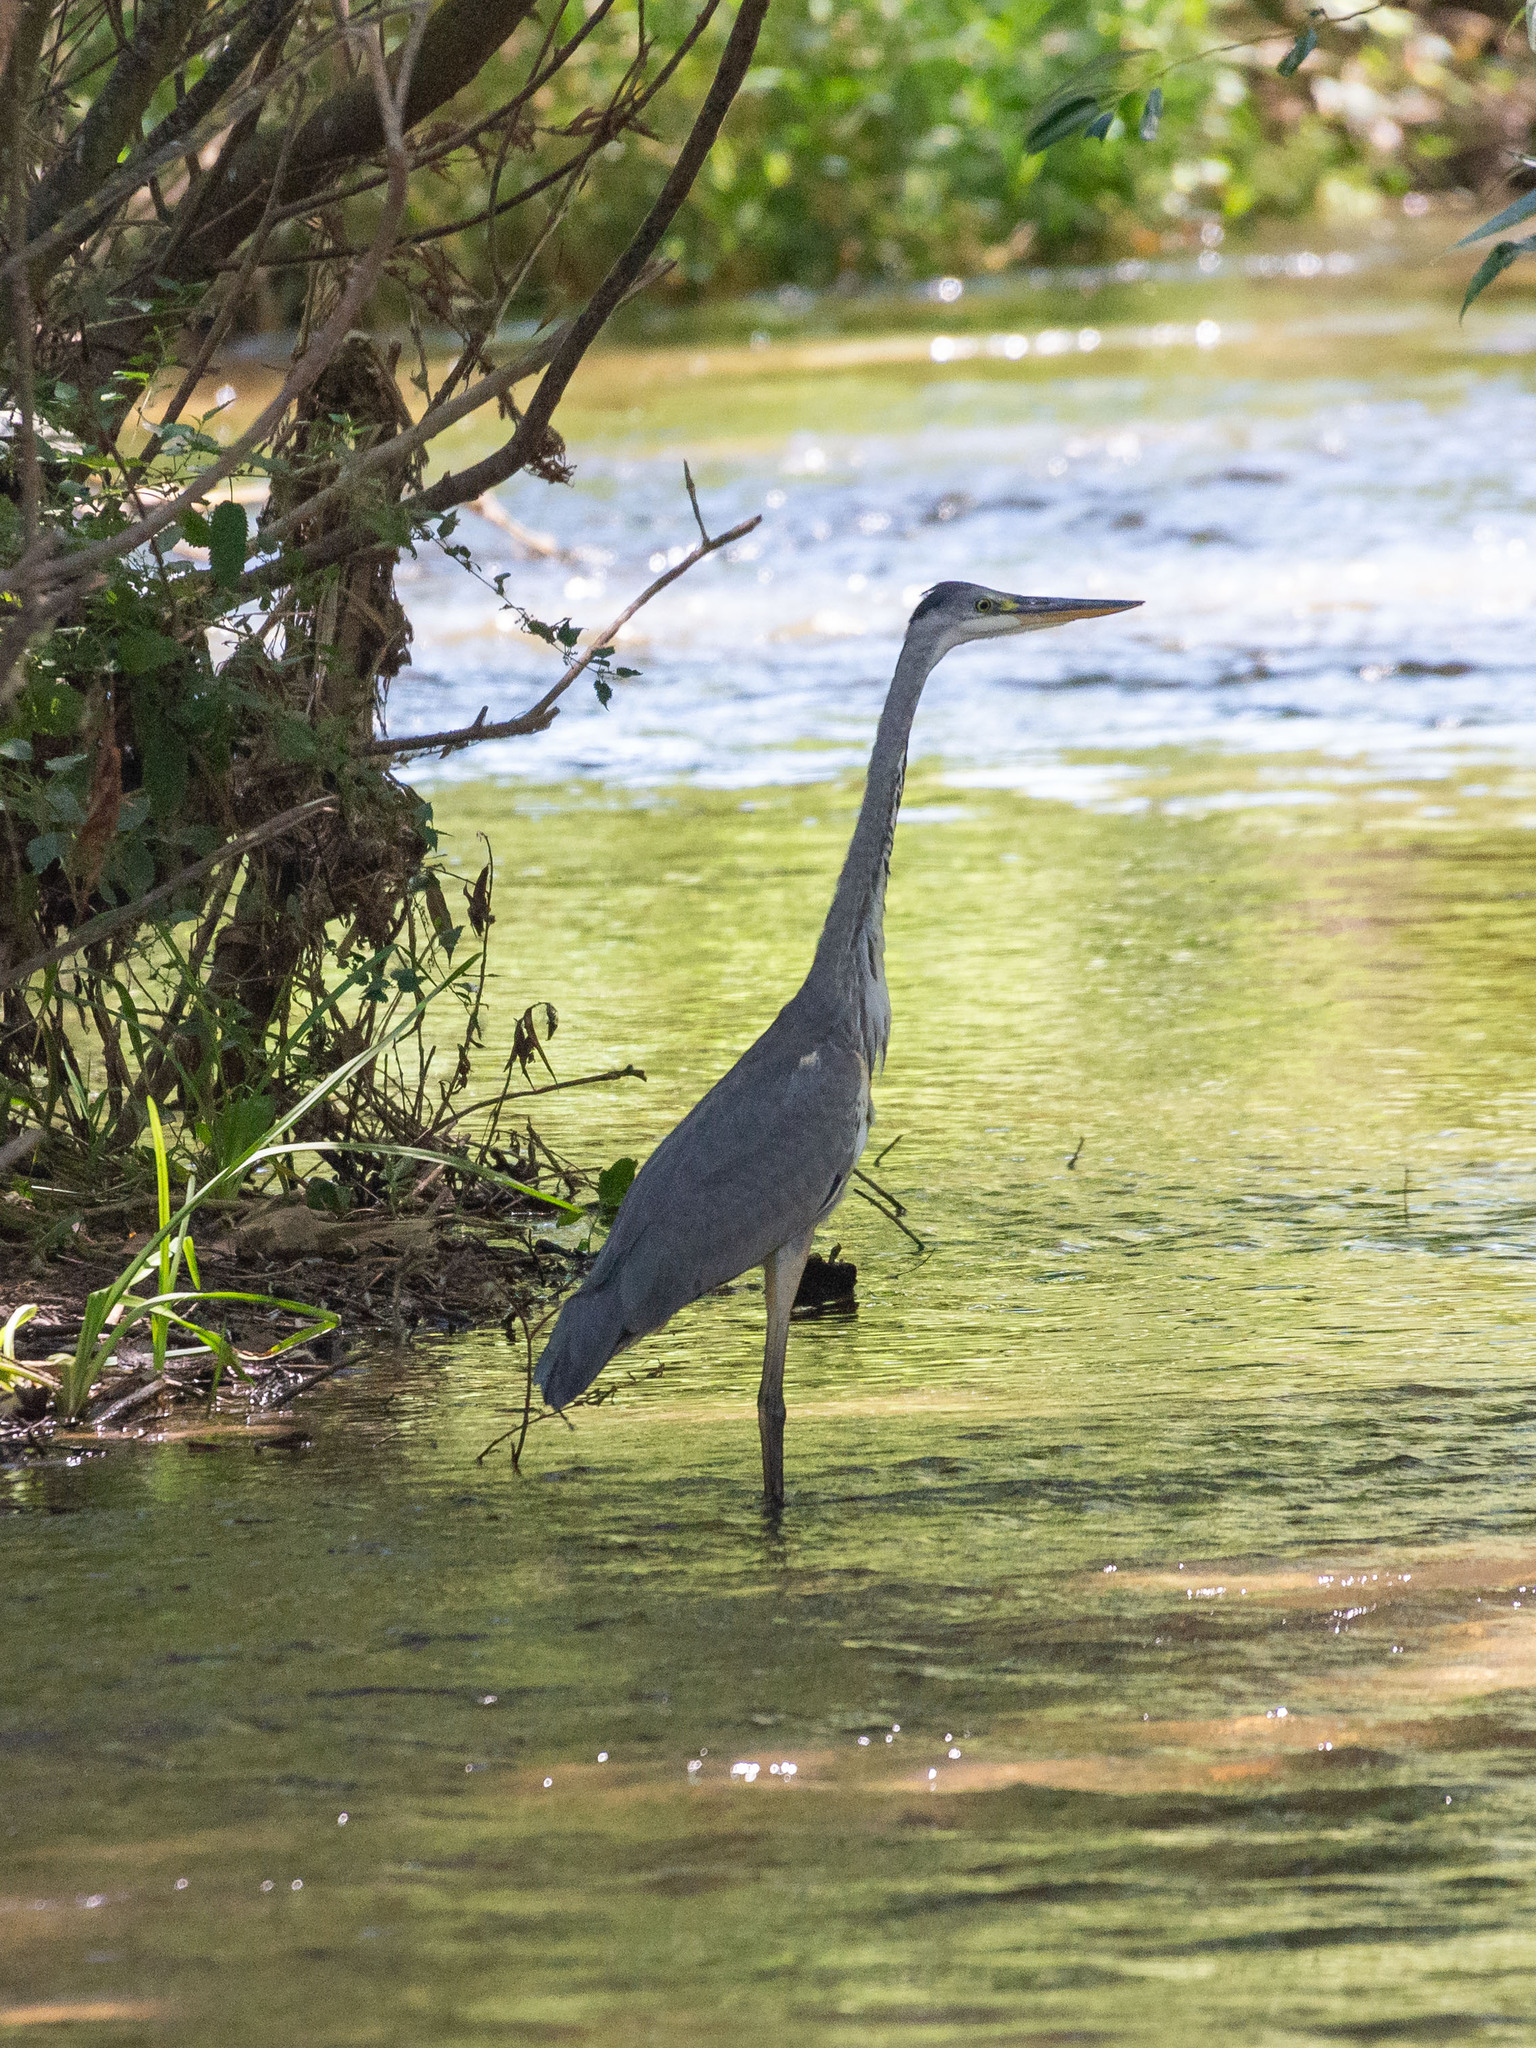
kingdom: Animalia
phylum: Chordata
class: Aves
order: Pelecaniformes
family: Ardeidae
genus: Ardea
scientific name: Ardea cinerea
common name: Grey heron
